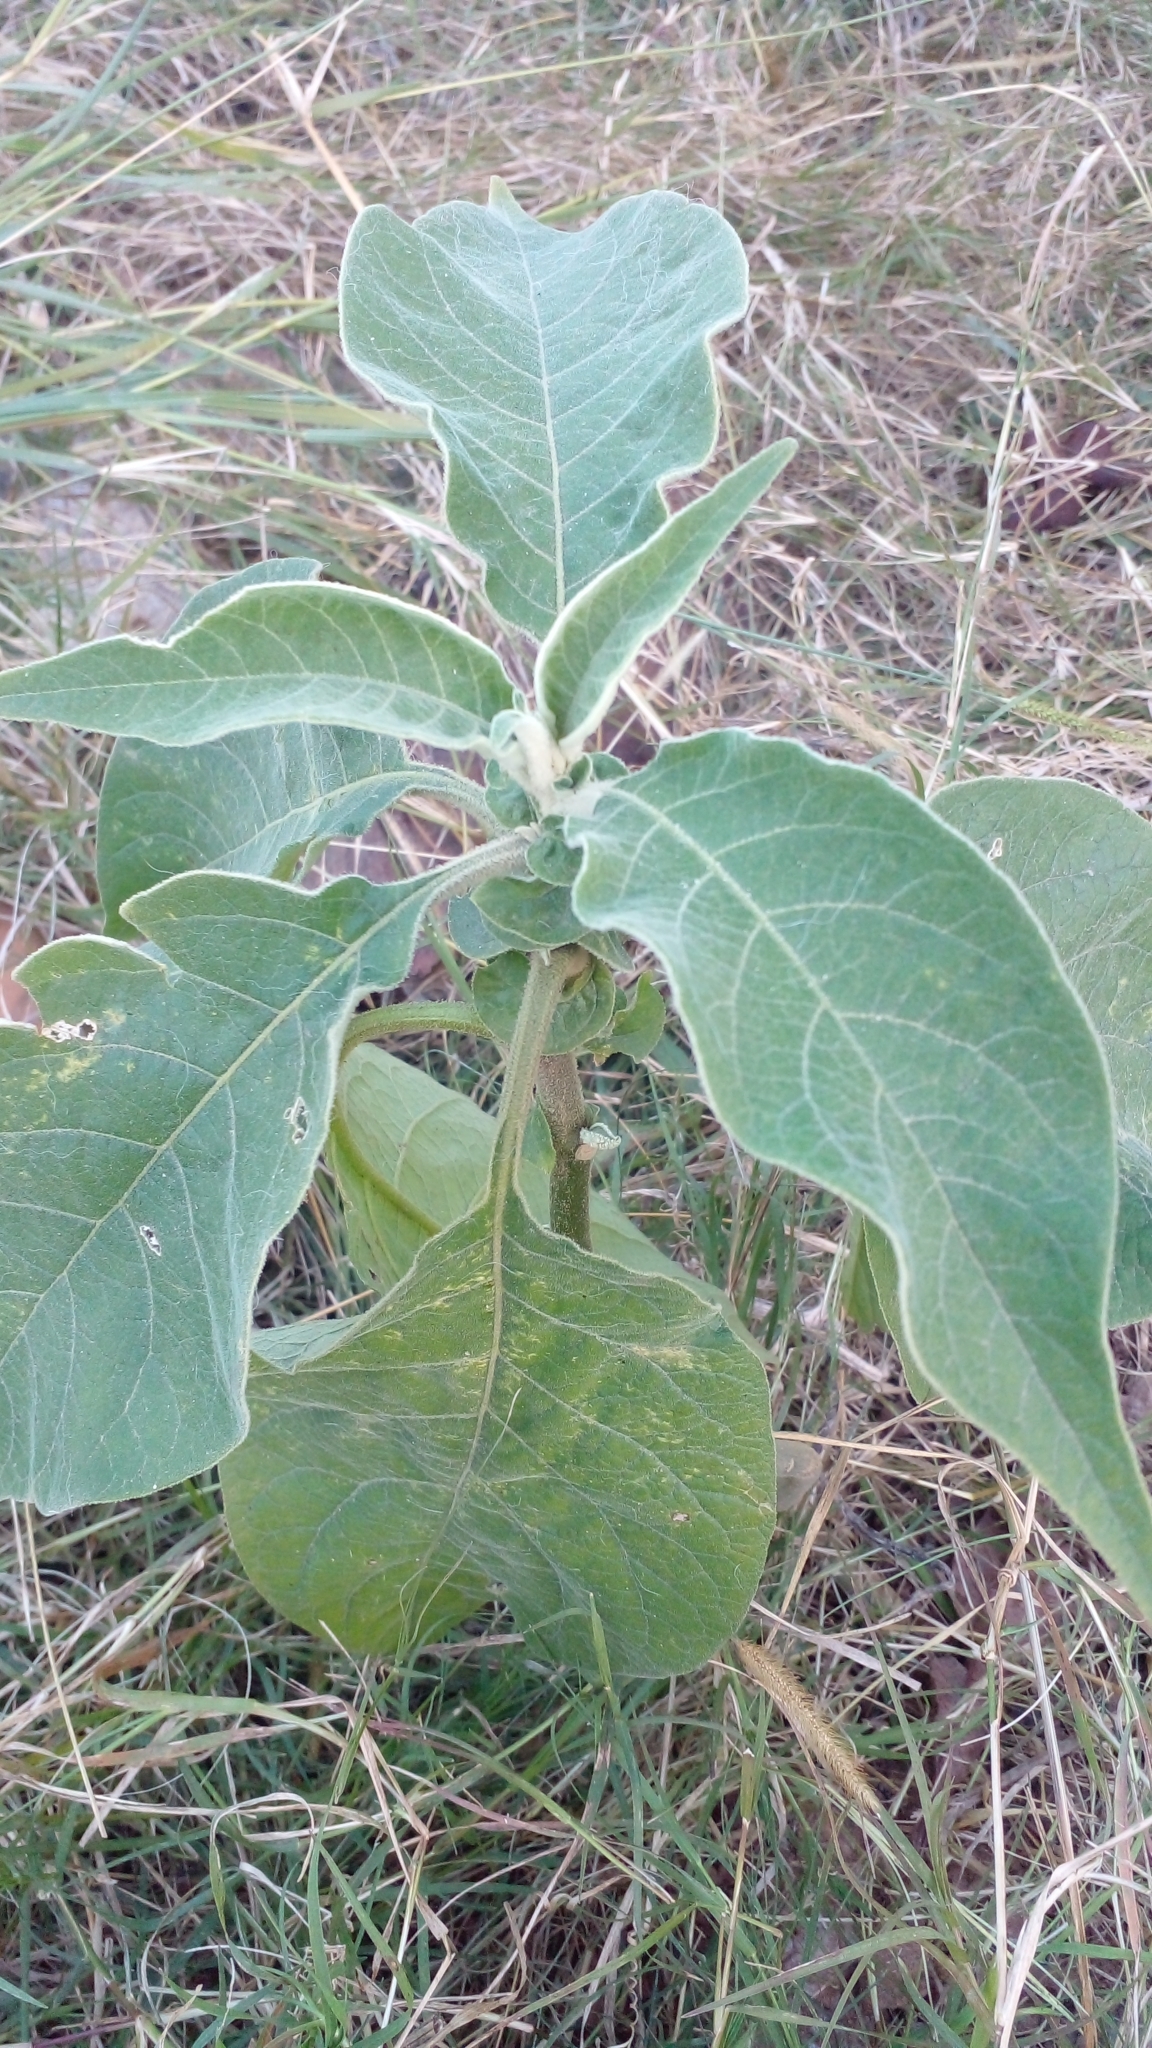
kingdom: Plantae
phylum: Tracheophyta
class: Magnoliopsida
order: Solanales
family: Solanaceae
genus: Solanum
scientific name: Solanum mauritianum
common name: Earleaf nightshade
